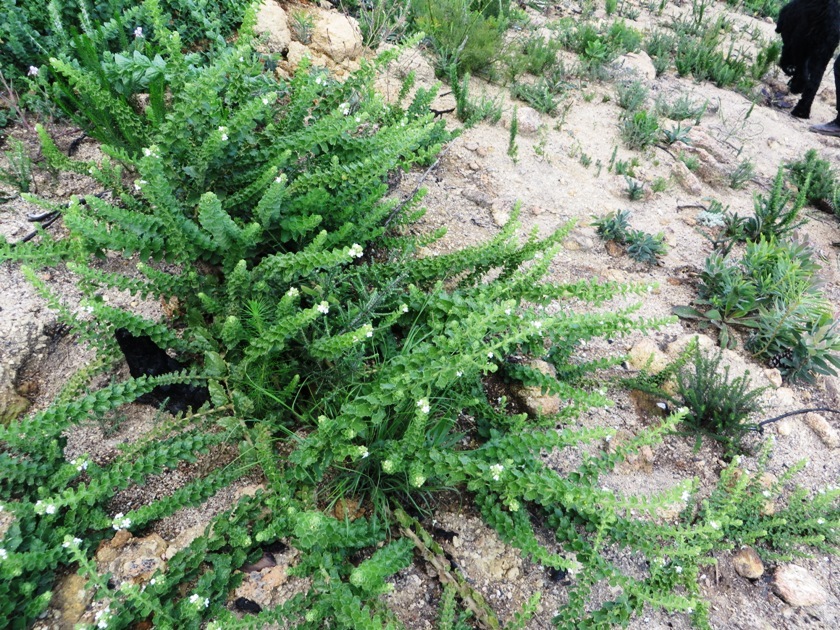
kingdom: Plantae
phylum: Tracheophyta
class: Magnoliopsida
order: Lamiales
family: Scrophulariaceae
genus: Oftia
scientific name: Oftia africana
